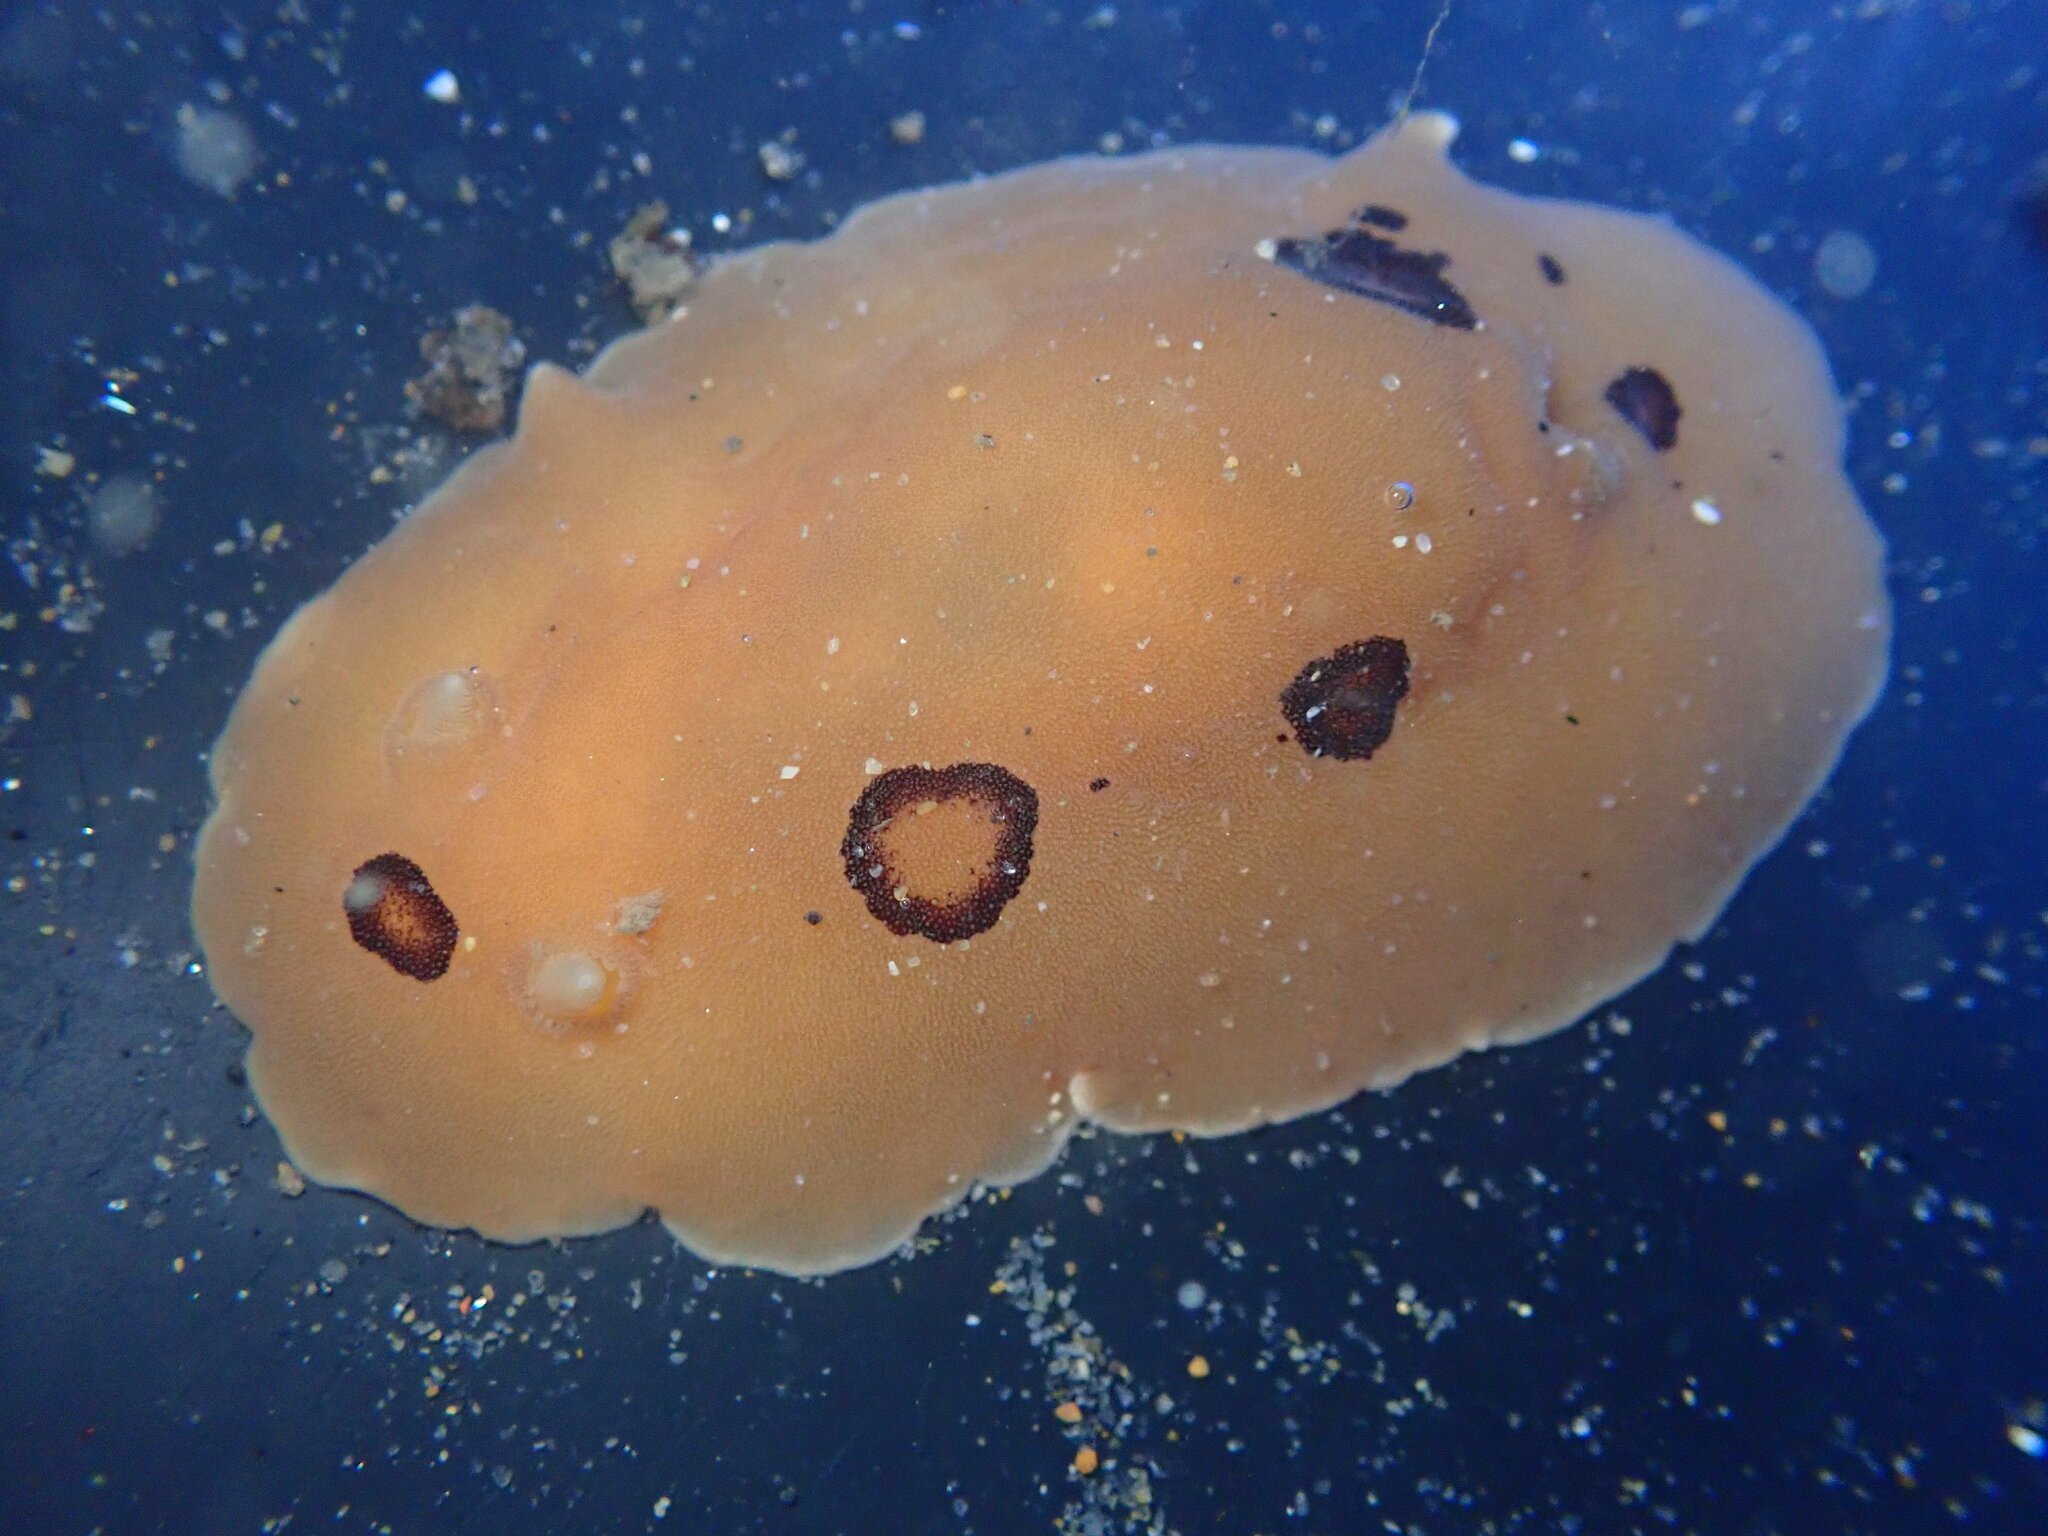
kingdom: Animalia
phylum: Mollusca
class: Gastropoda
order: Nudibranchia
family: Discodorididae
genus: Diaulula
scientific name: Diaulula sandiegensis
